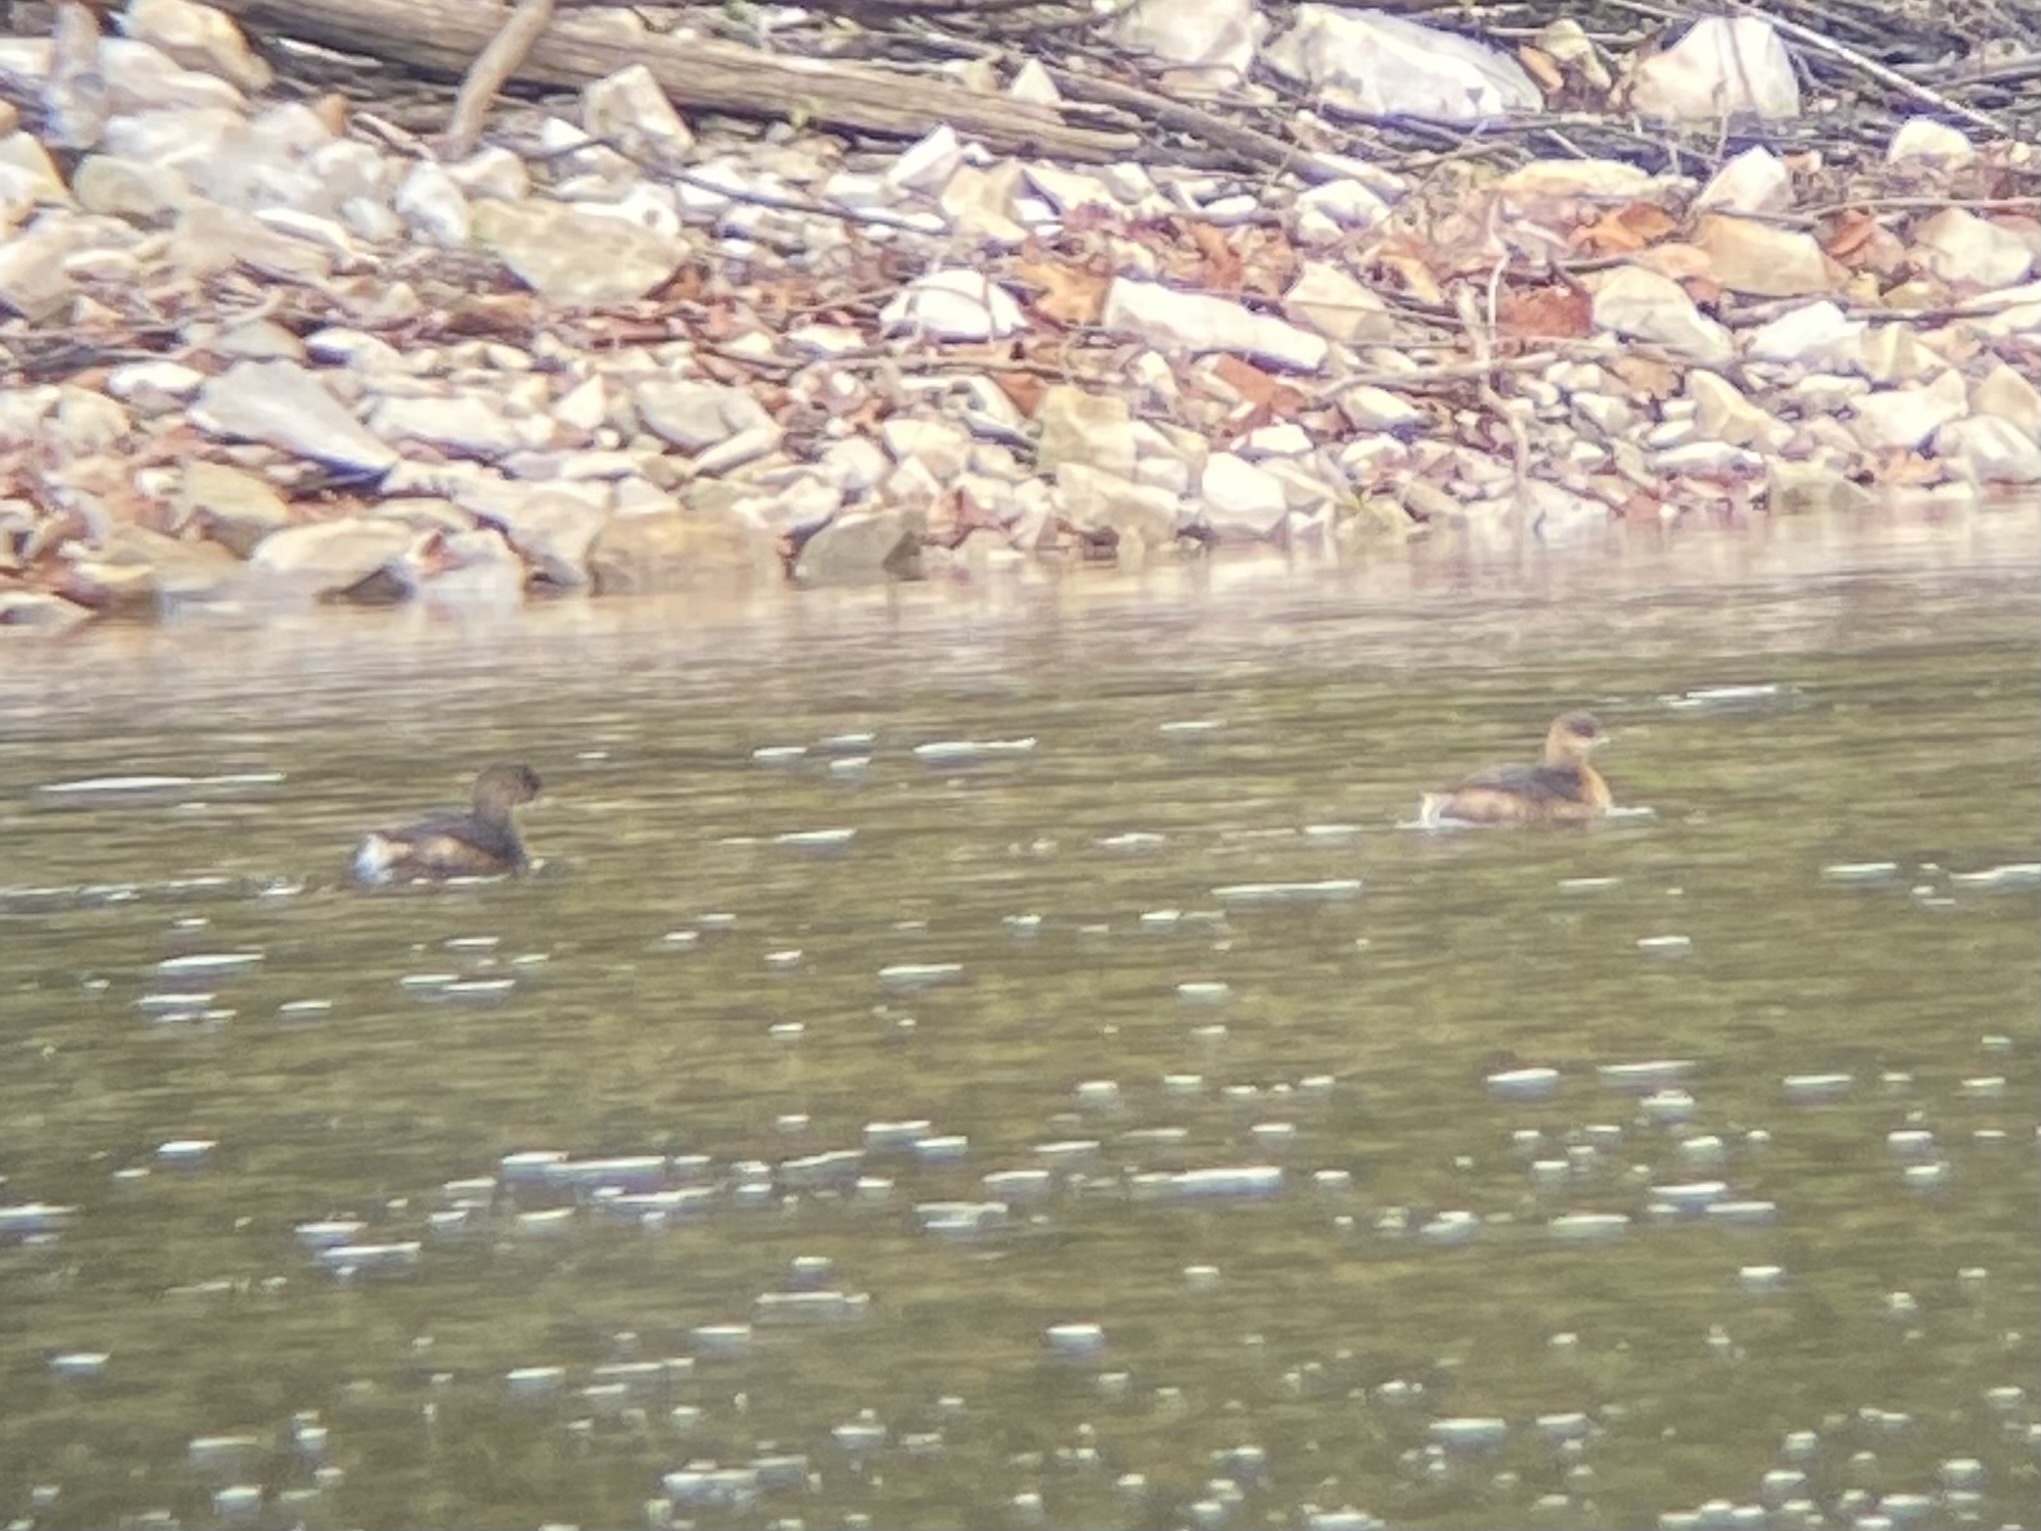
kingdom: Animalia
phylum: Chordata
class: Aves
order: Podicipediformes
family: Podicipedidae
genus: Podilymbus
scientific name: Podilymbus podiceps
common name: Pied-billed grebe
